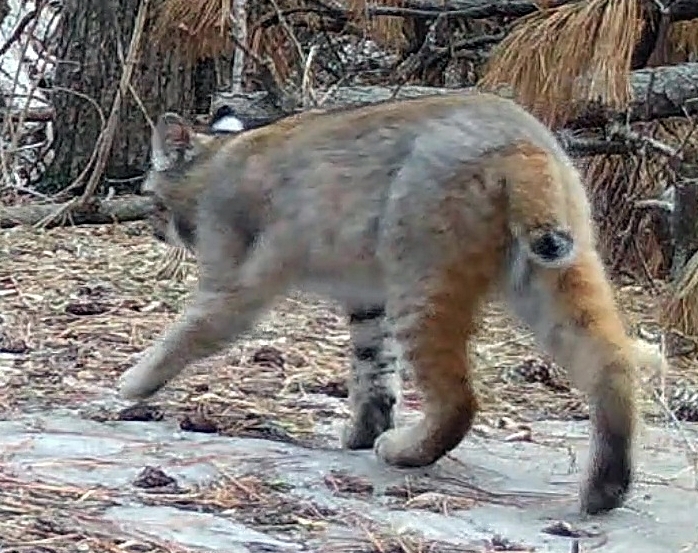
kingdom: Animalia
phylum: Chordata
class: Mammalia
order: Carnivora
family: Felidae
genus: Lynx
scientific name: Lynx rufus
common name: Bobcat
